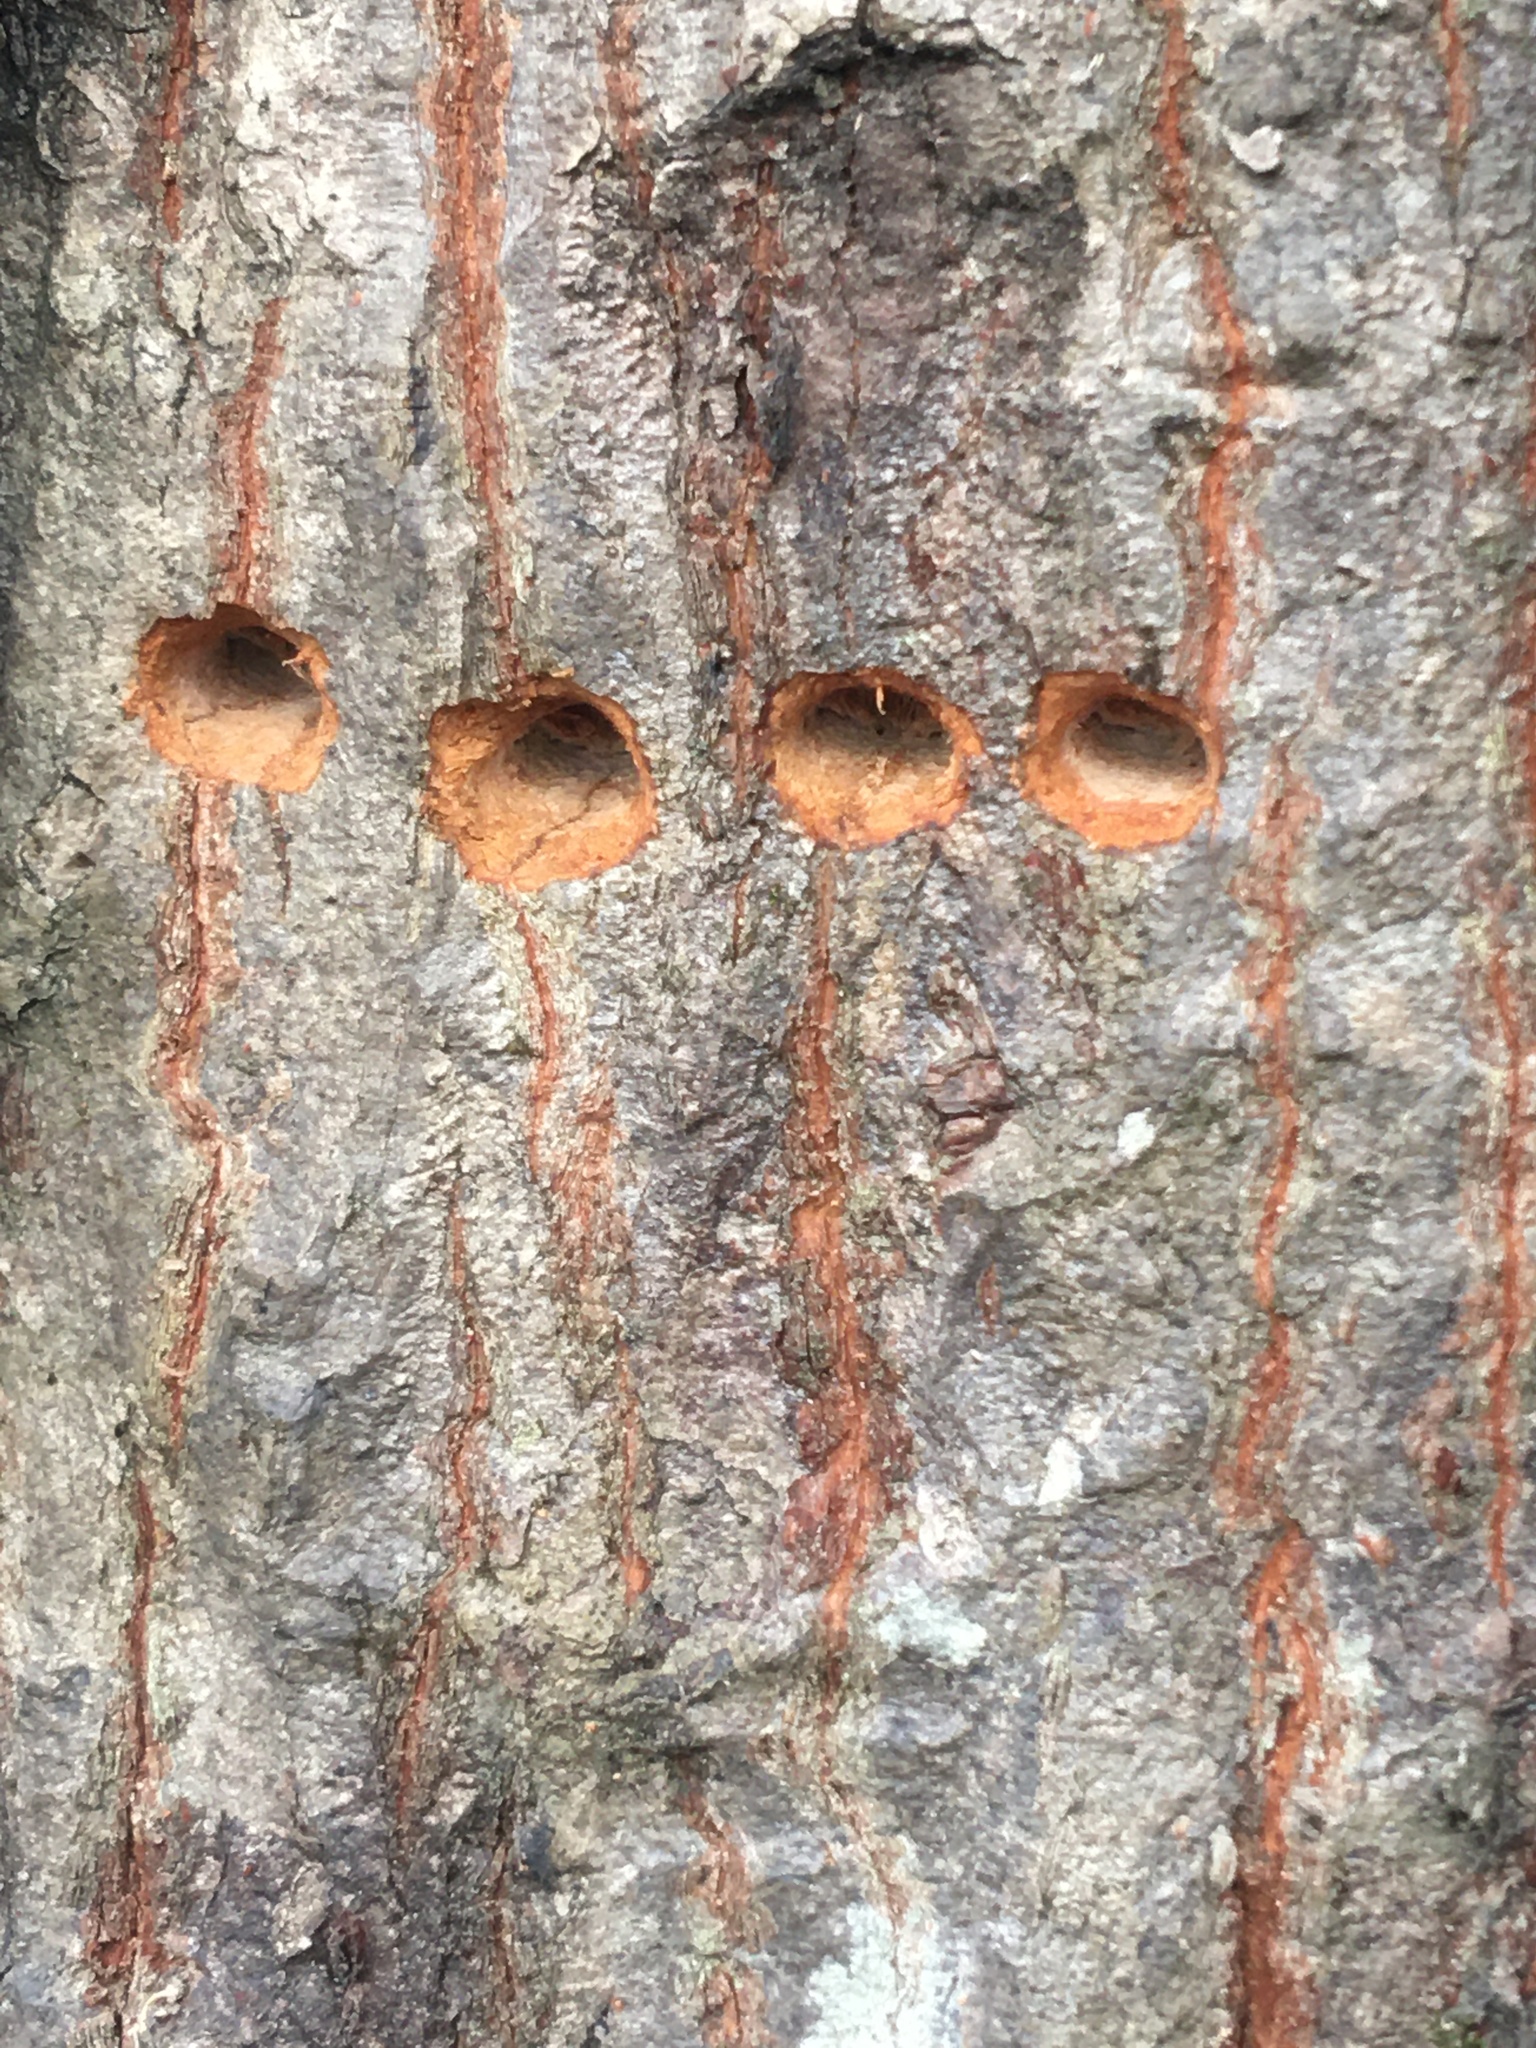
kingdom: Animalia
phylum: Chordata
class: Aves
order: Piciformes
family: Picidae
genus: Sphyrapicus
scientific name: Sphyrapicus varius
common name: Yellow-bellied sapsucker
